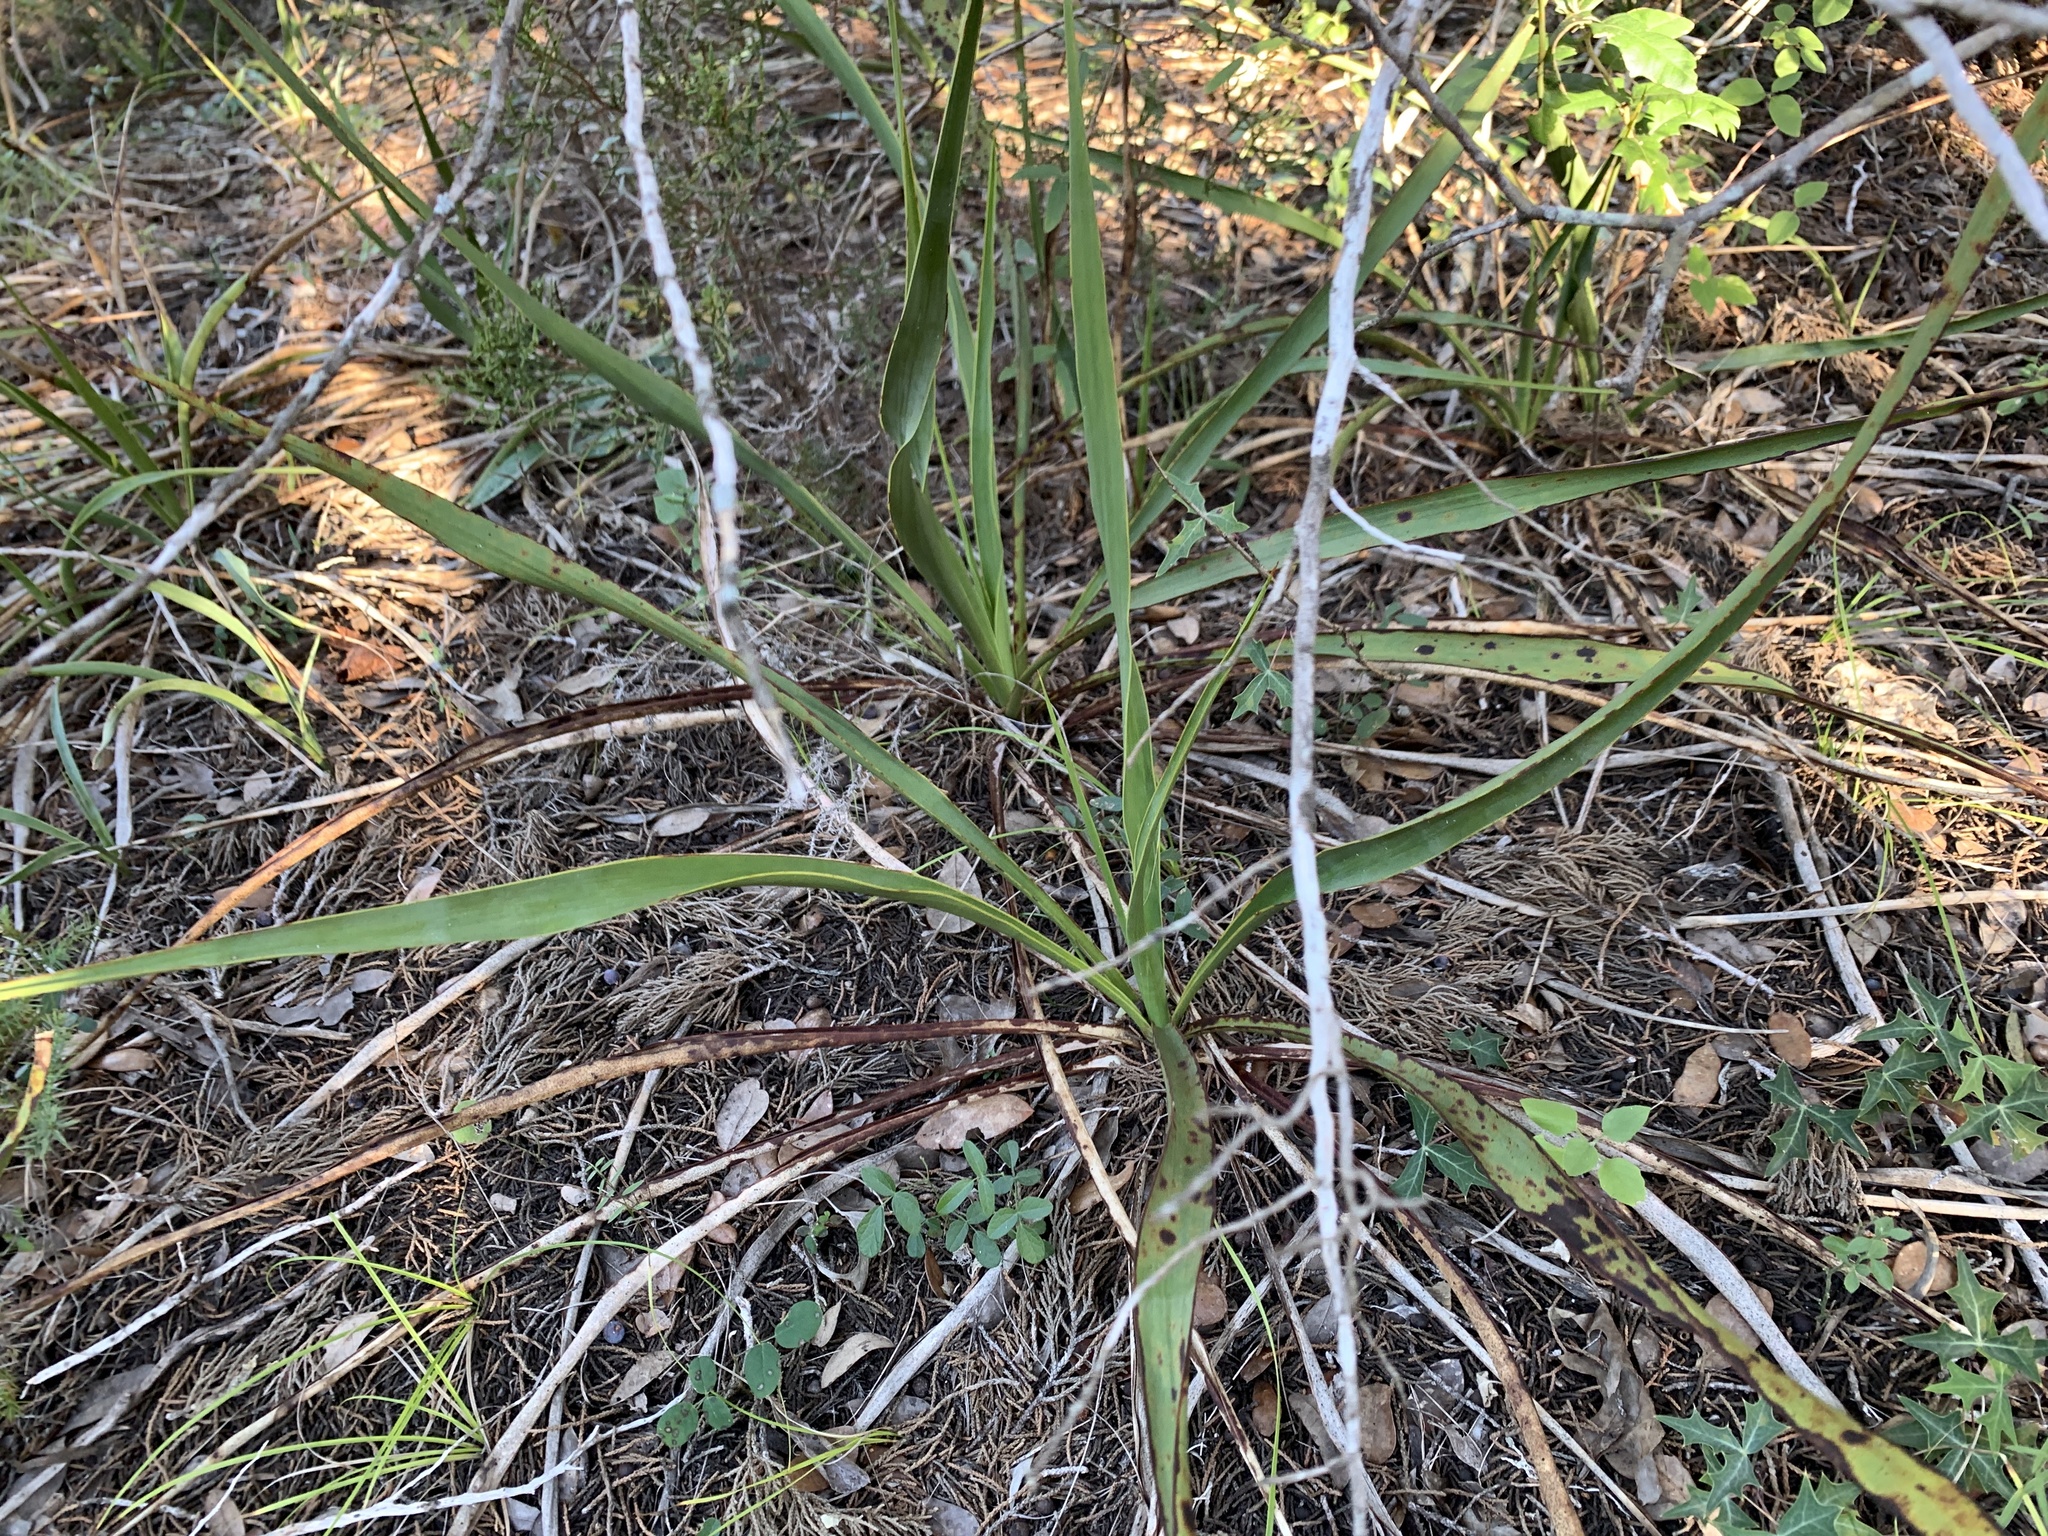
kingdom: Plantae
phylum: Tracheophyta
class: Liliopsida
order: Asparagales
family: Asparagaceae
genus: Yucca
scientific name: Yucca rupicola
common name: Twisted-leaf spanish-dagger
